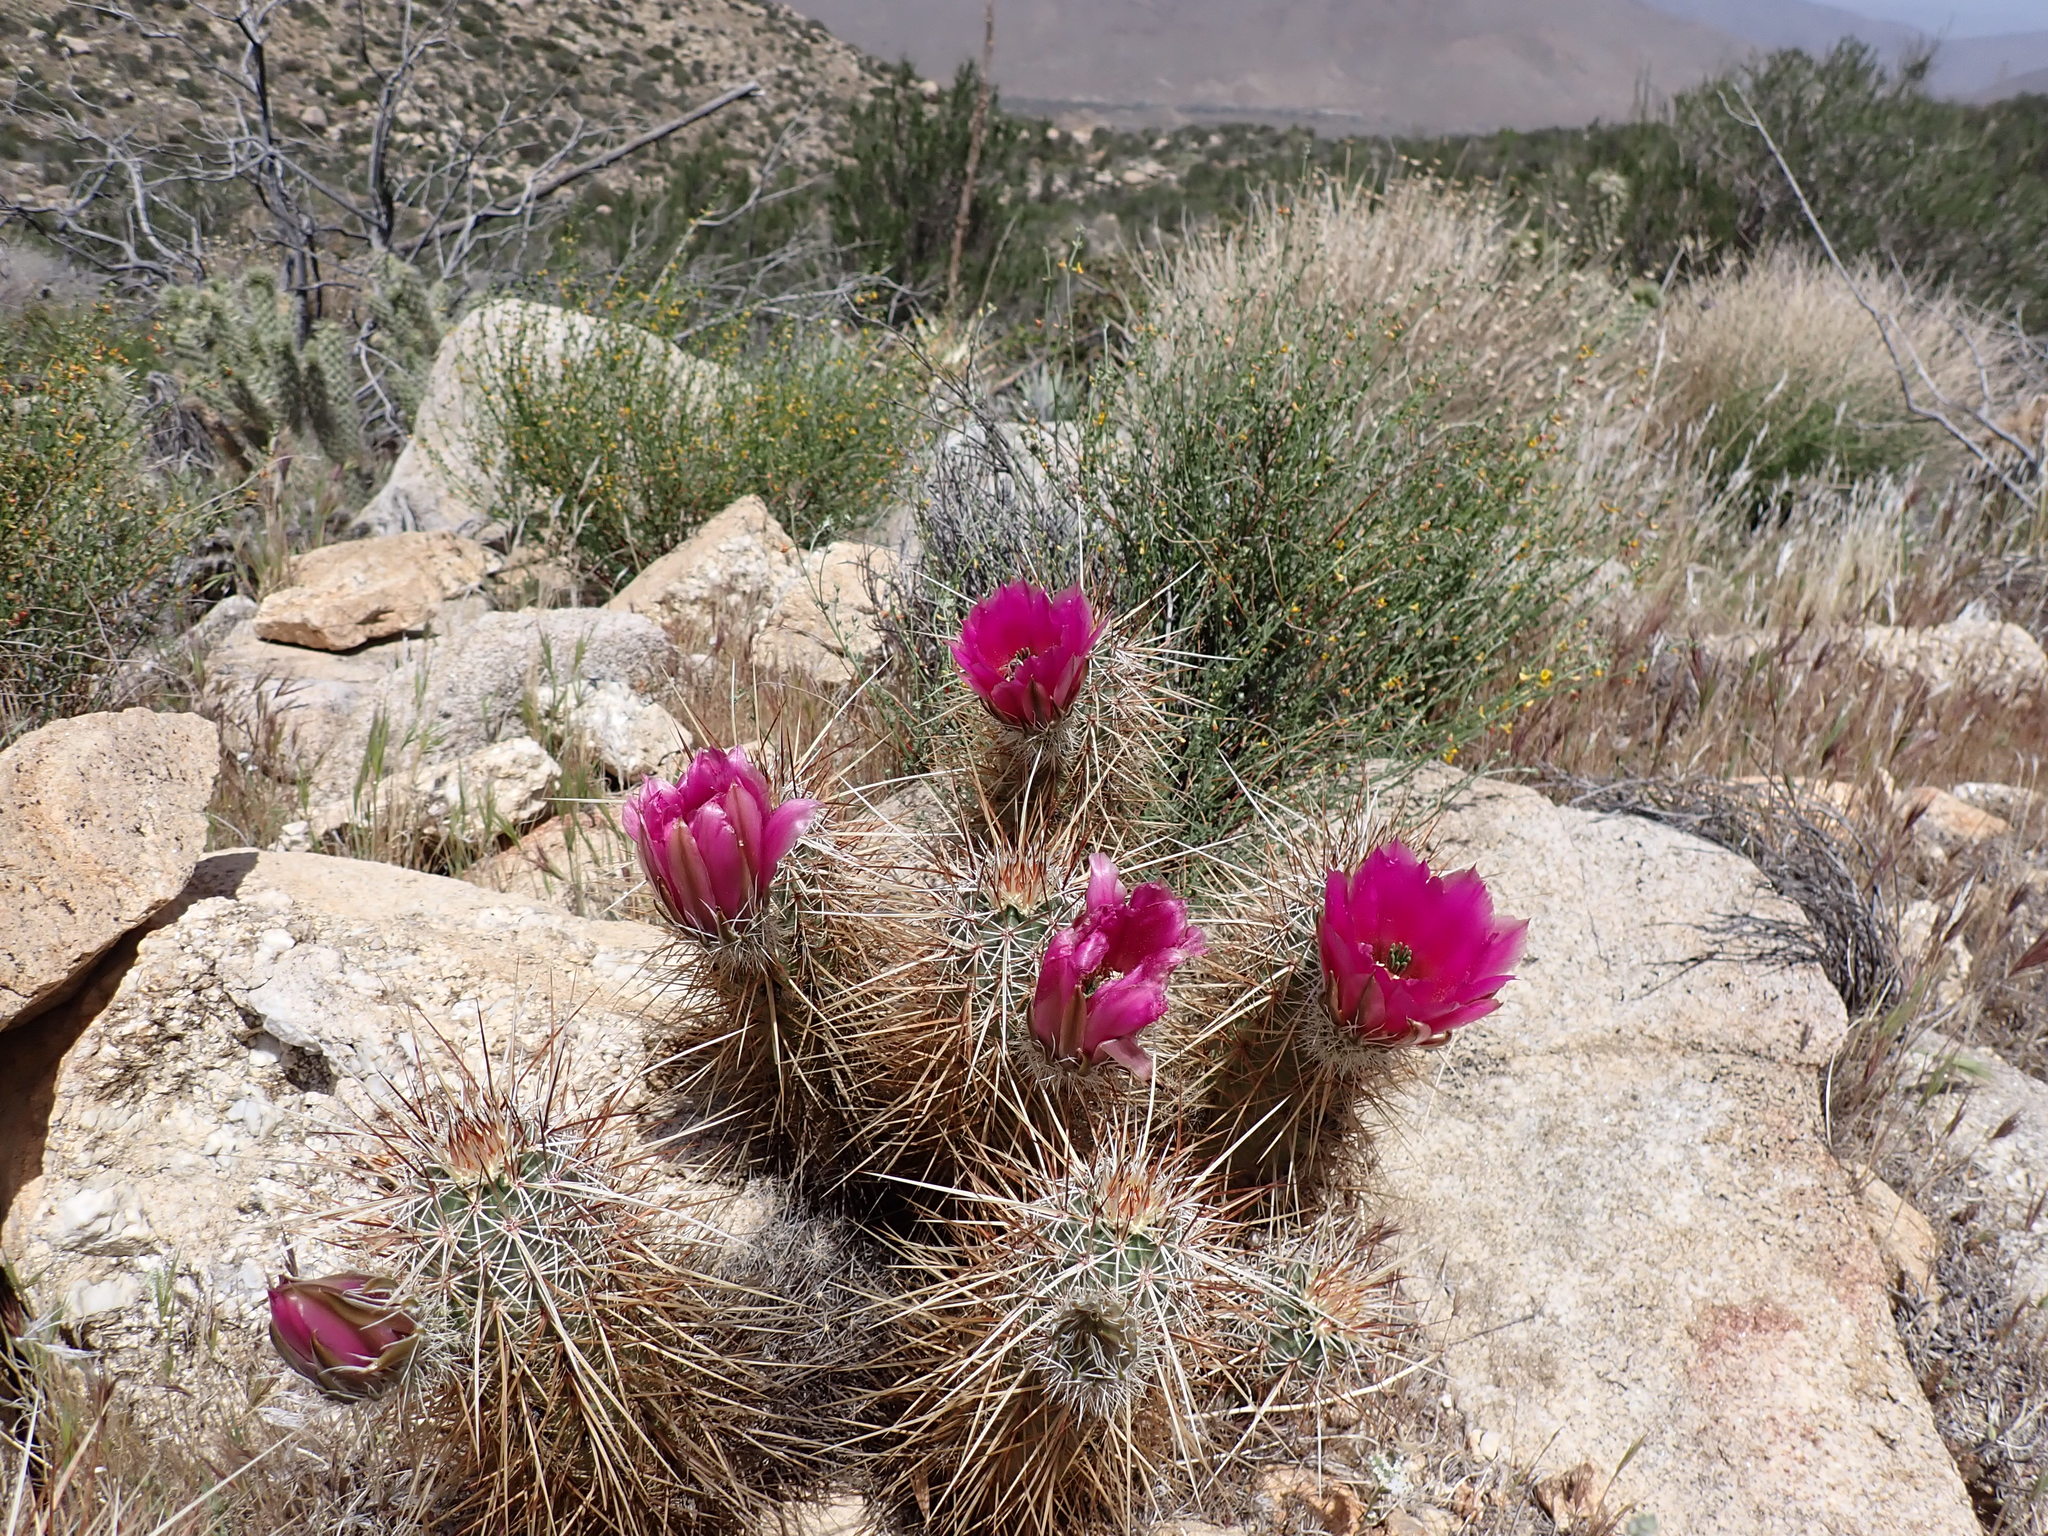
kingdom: Plantae
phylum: Tracheophyta
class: Magnoliopsida
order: Caryophyllales
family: Cactaceae
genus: Echinocereus
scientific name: Echinocereus engelmannii
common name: Engelmann's hedgehog cactus
